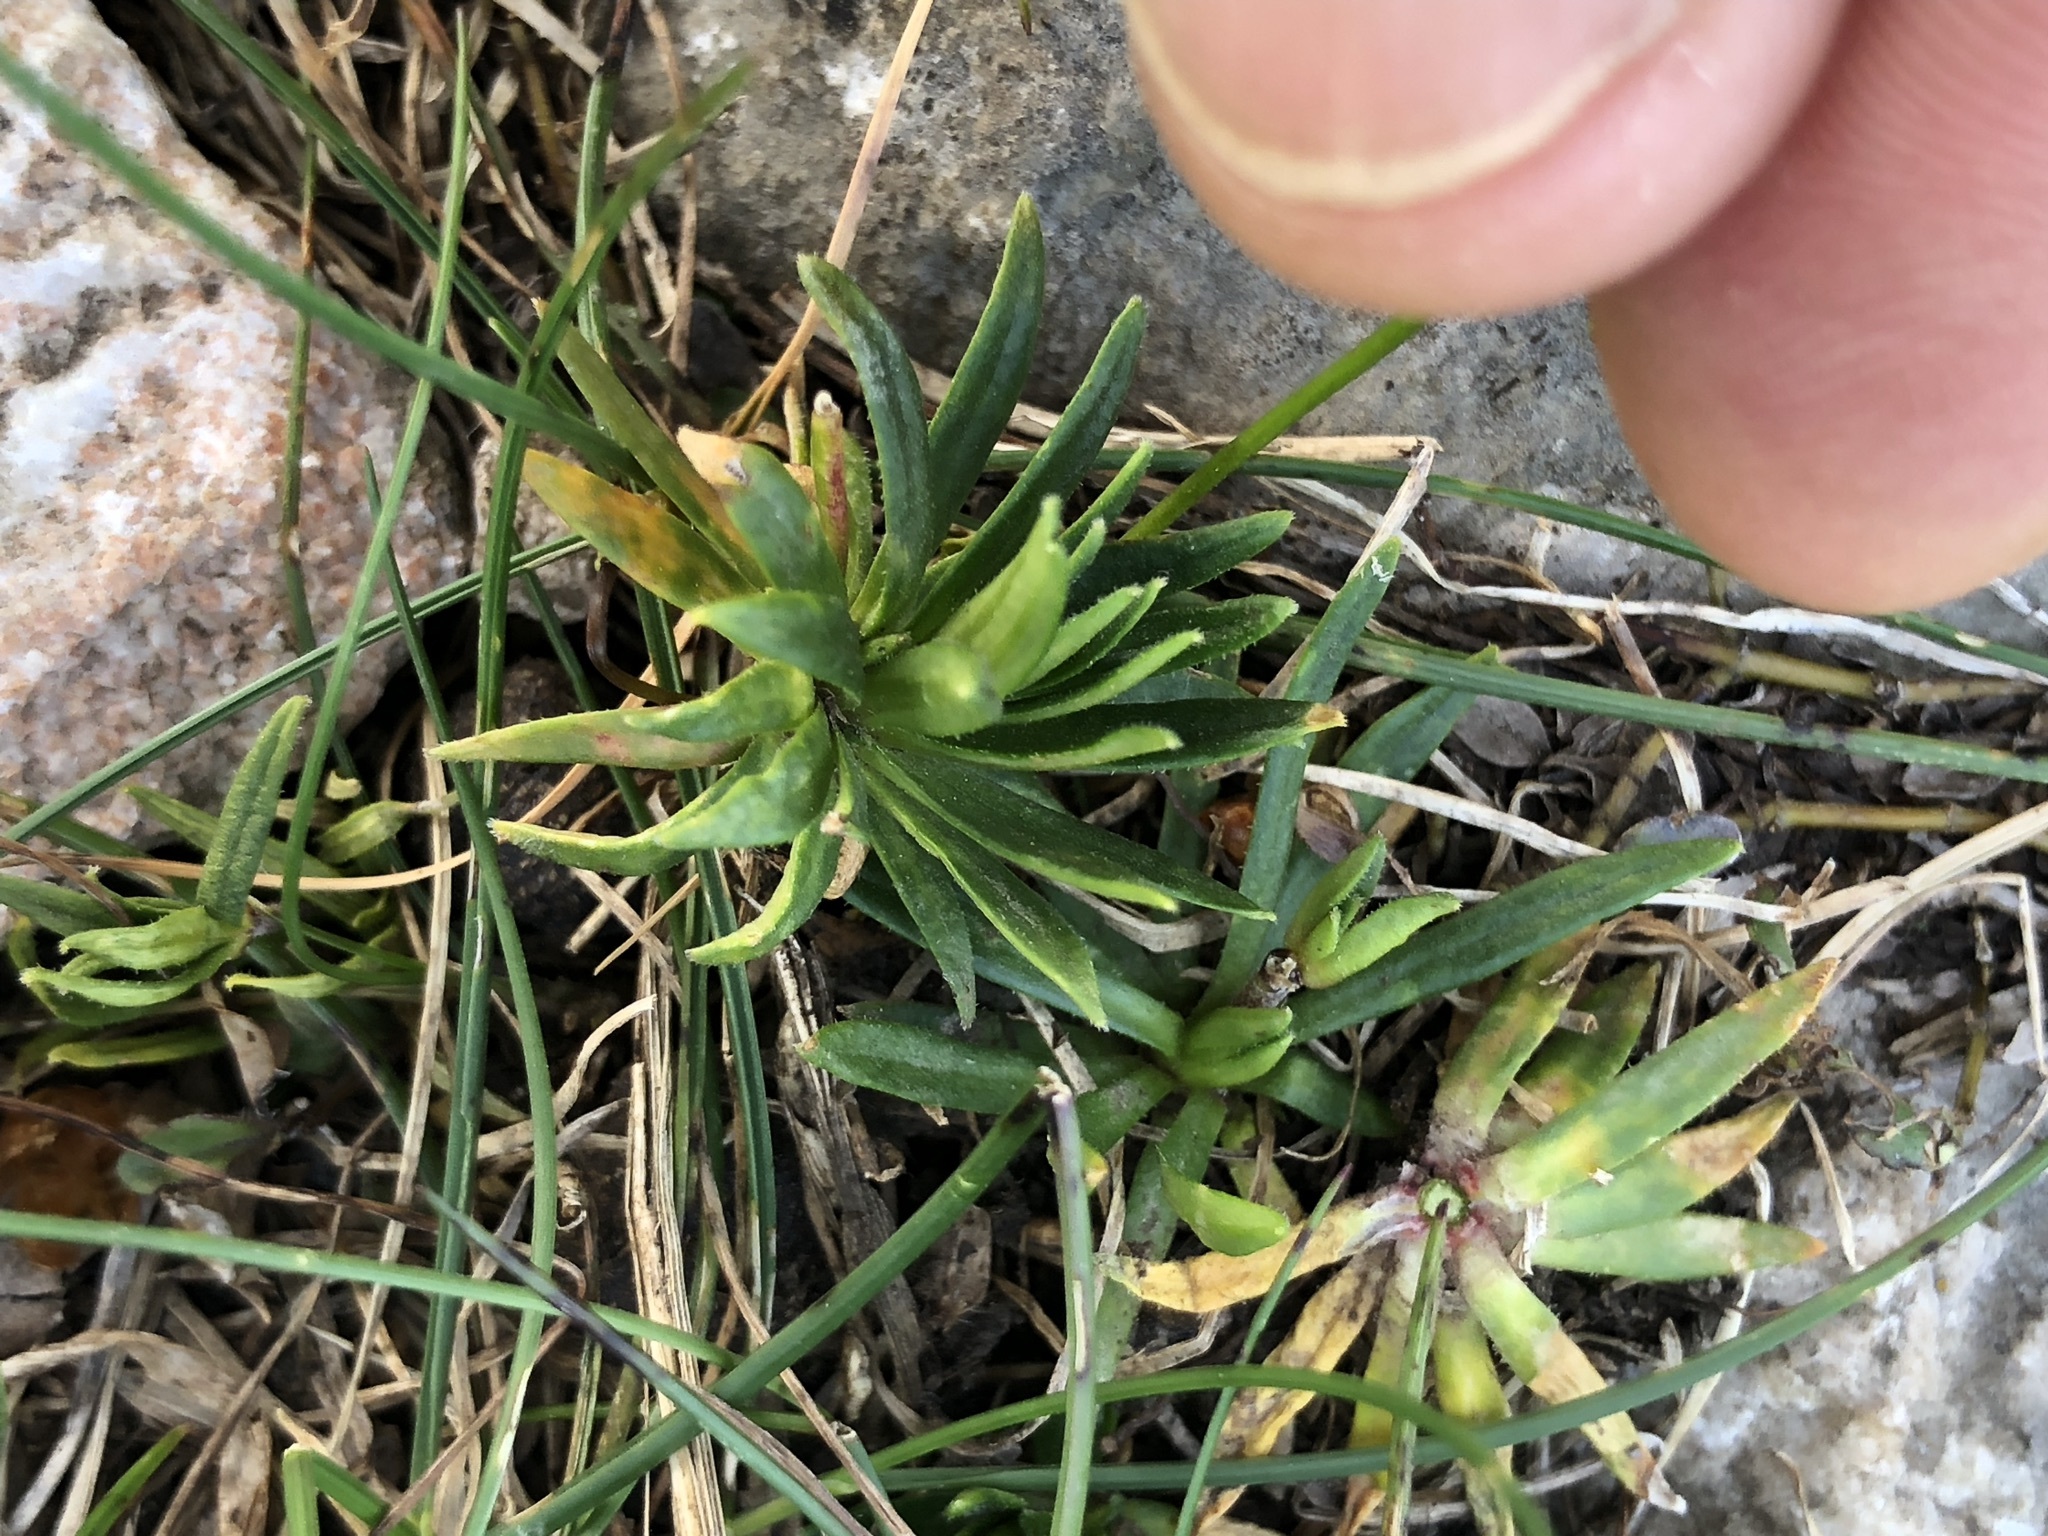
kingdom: Plantae
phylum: Tracheophyta
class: Magnoliopsida
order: Ericales
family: Primulaceae
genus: Androsace
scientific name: Androsace lactea
